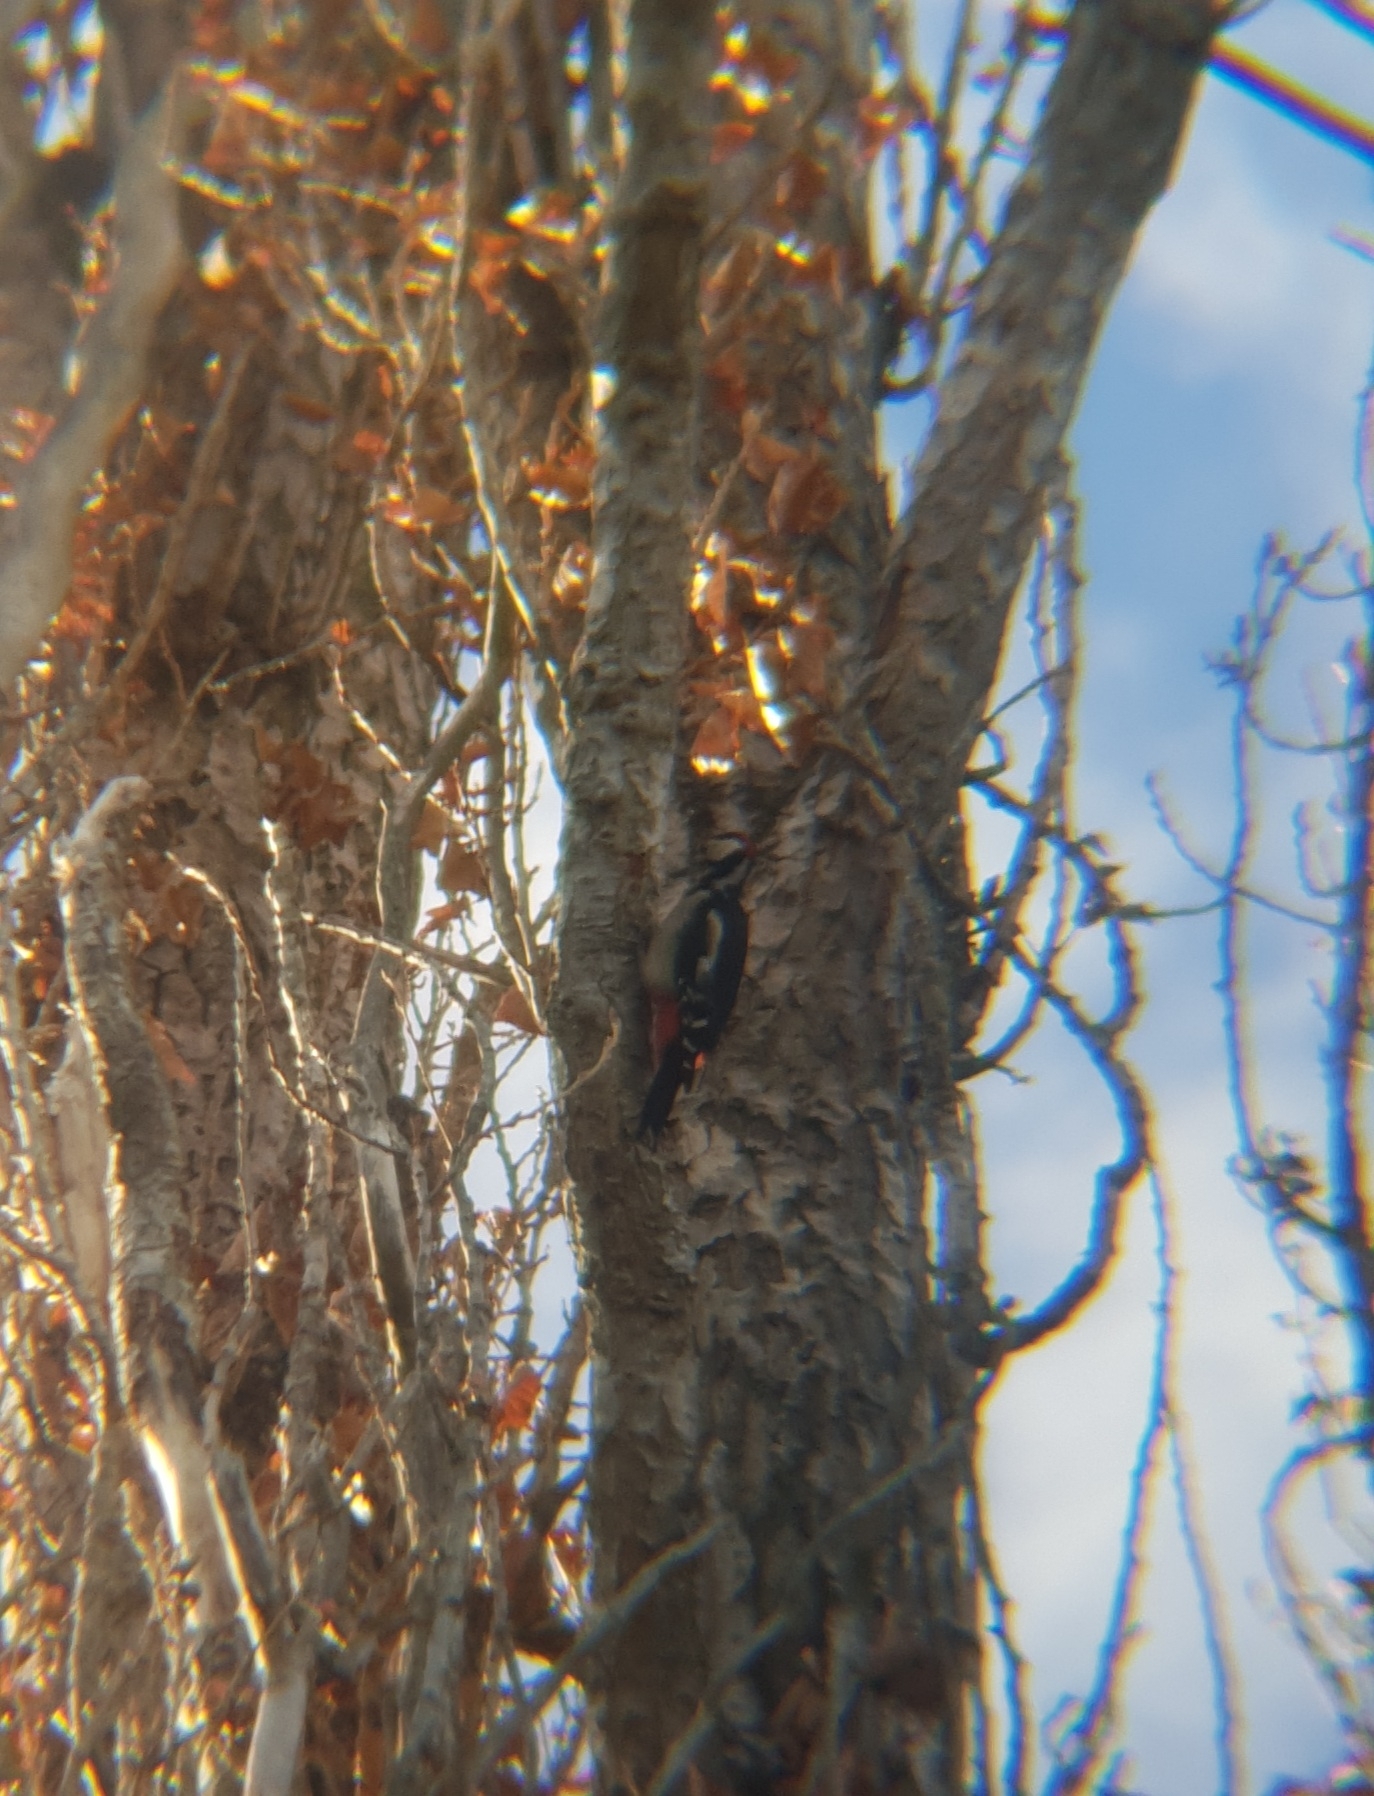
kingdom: Animalia
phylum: Chordata
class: Aves
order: Piciformes
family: Picidae
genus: Dendrocopos
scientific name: Dendrocopos major
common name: Great spotted woodpecker
